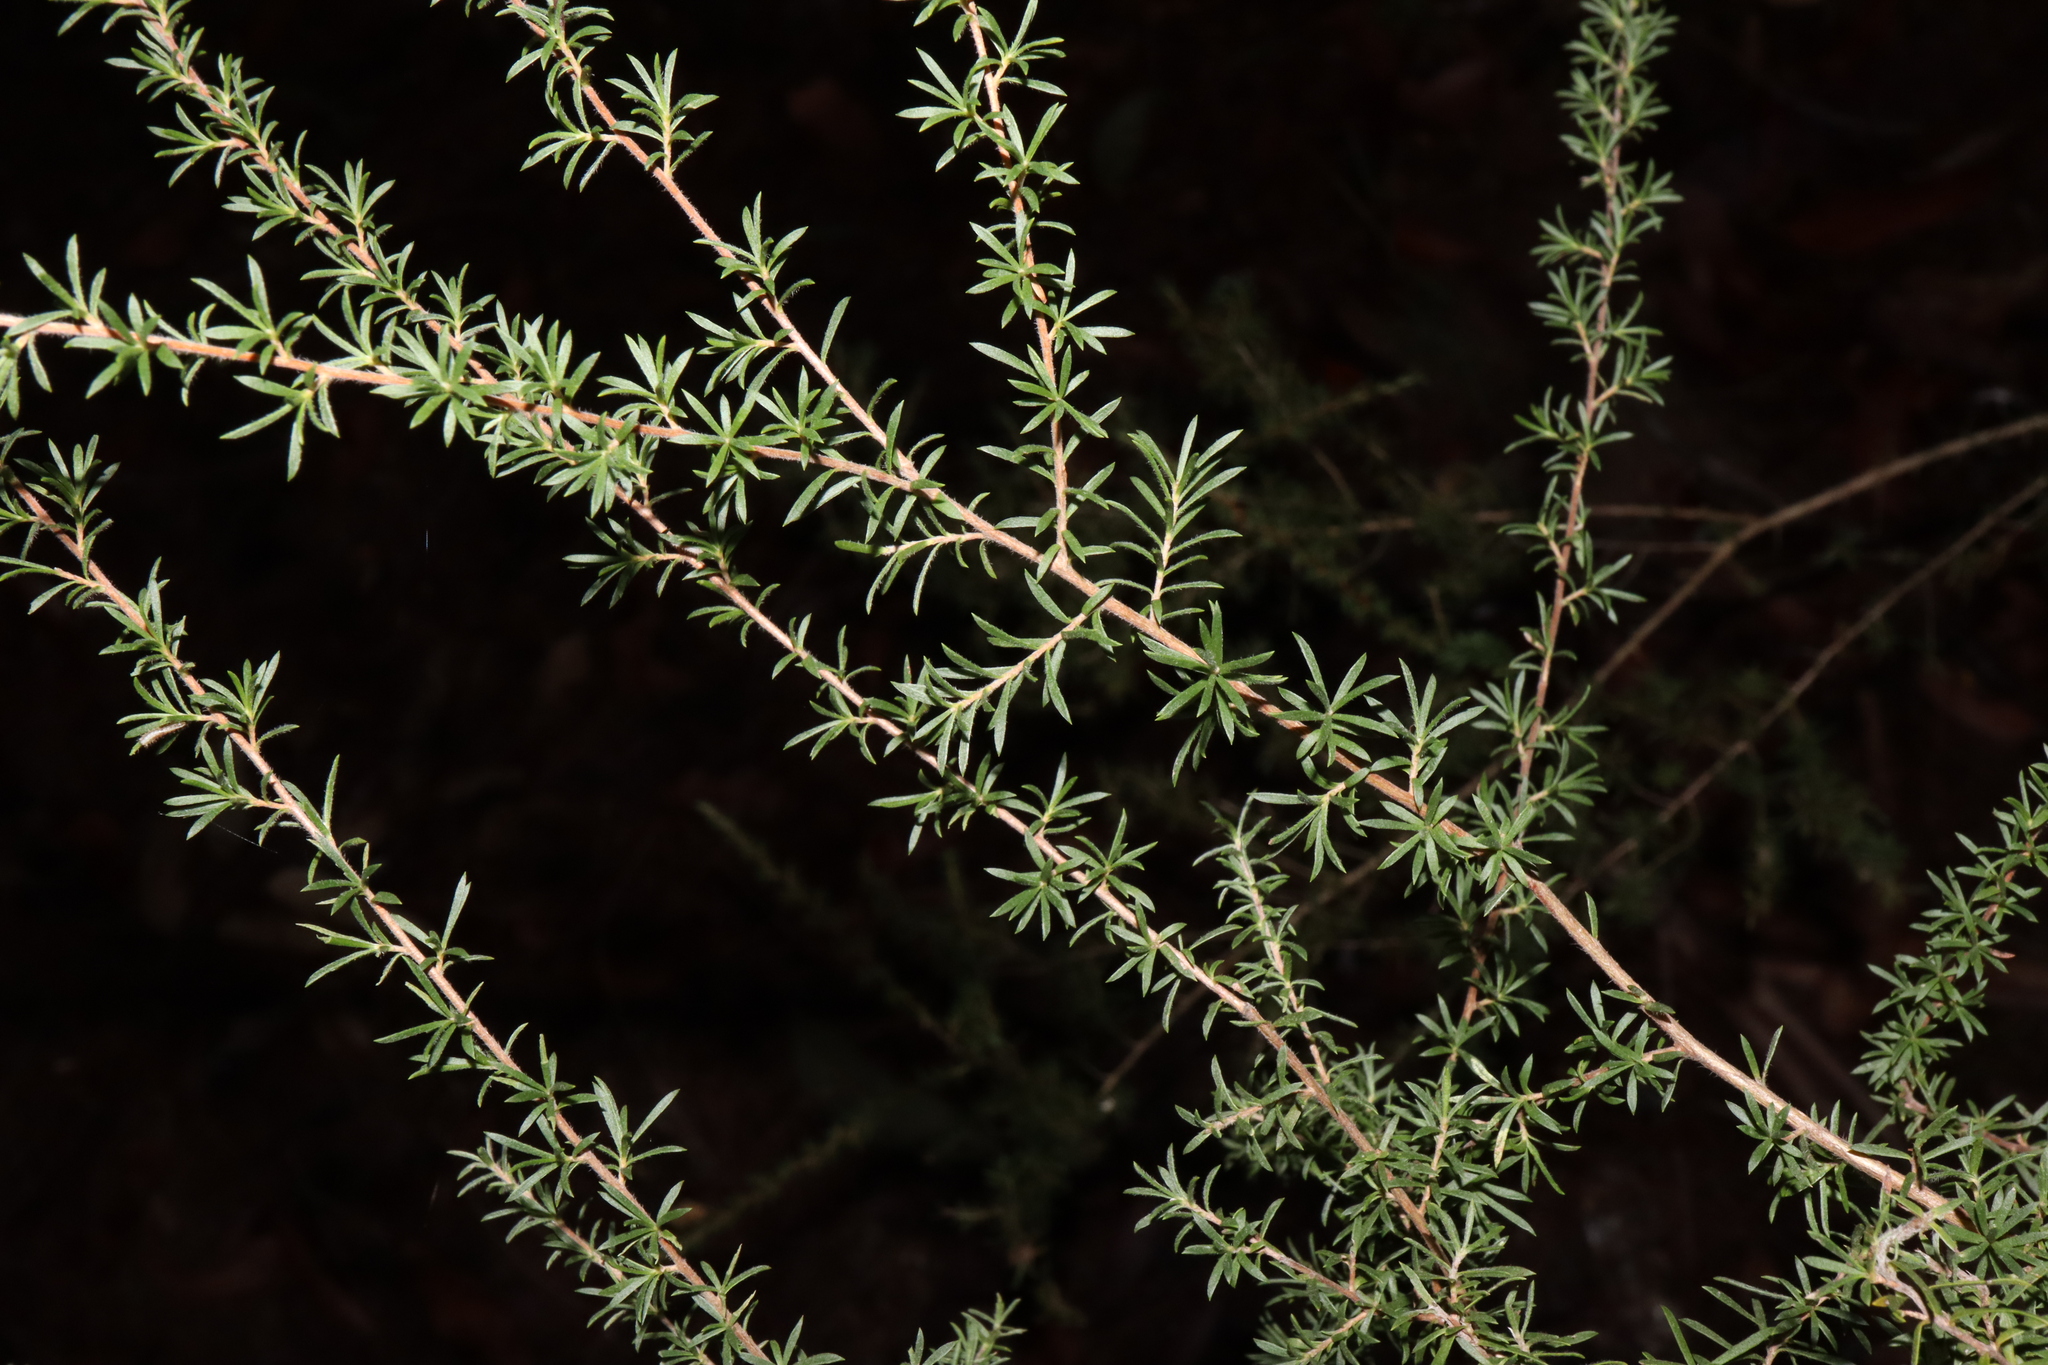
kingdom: Plantae
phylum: Tracheophyta
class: Magnoliopsida
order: Myrtales
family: Myrtaceae
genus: Kunzea
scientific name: Kunzea ambigua
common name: Tickbush
